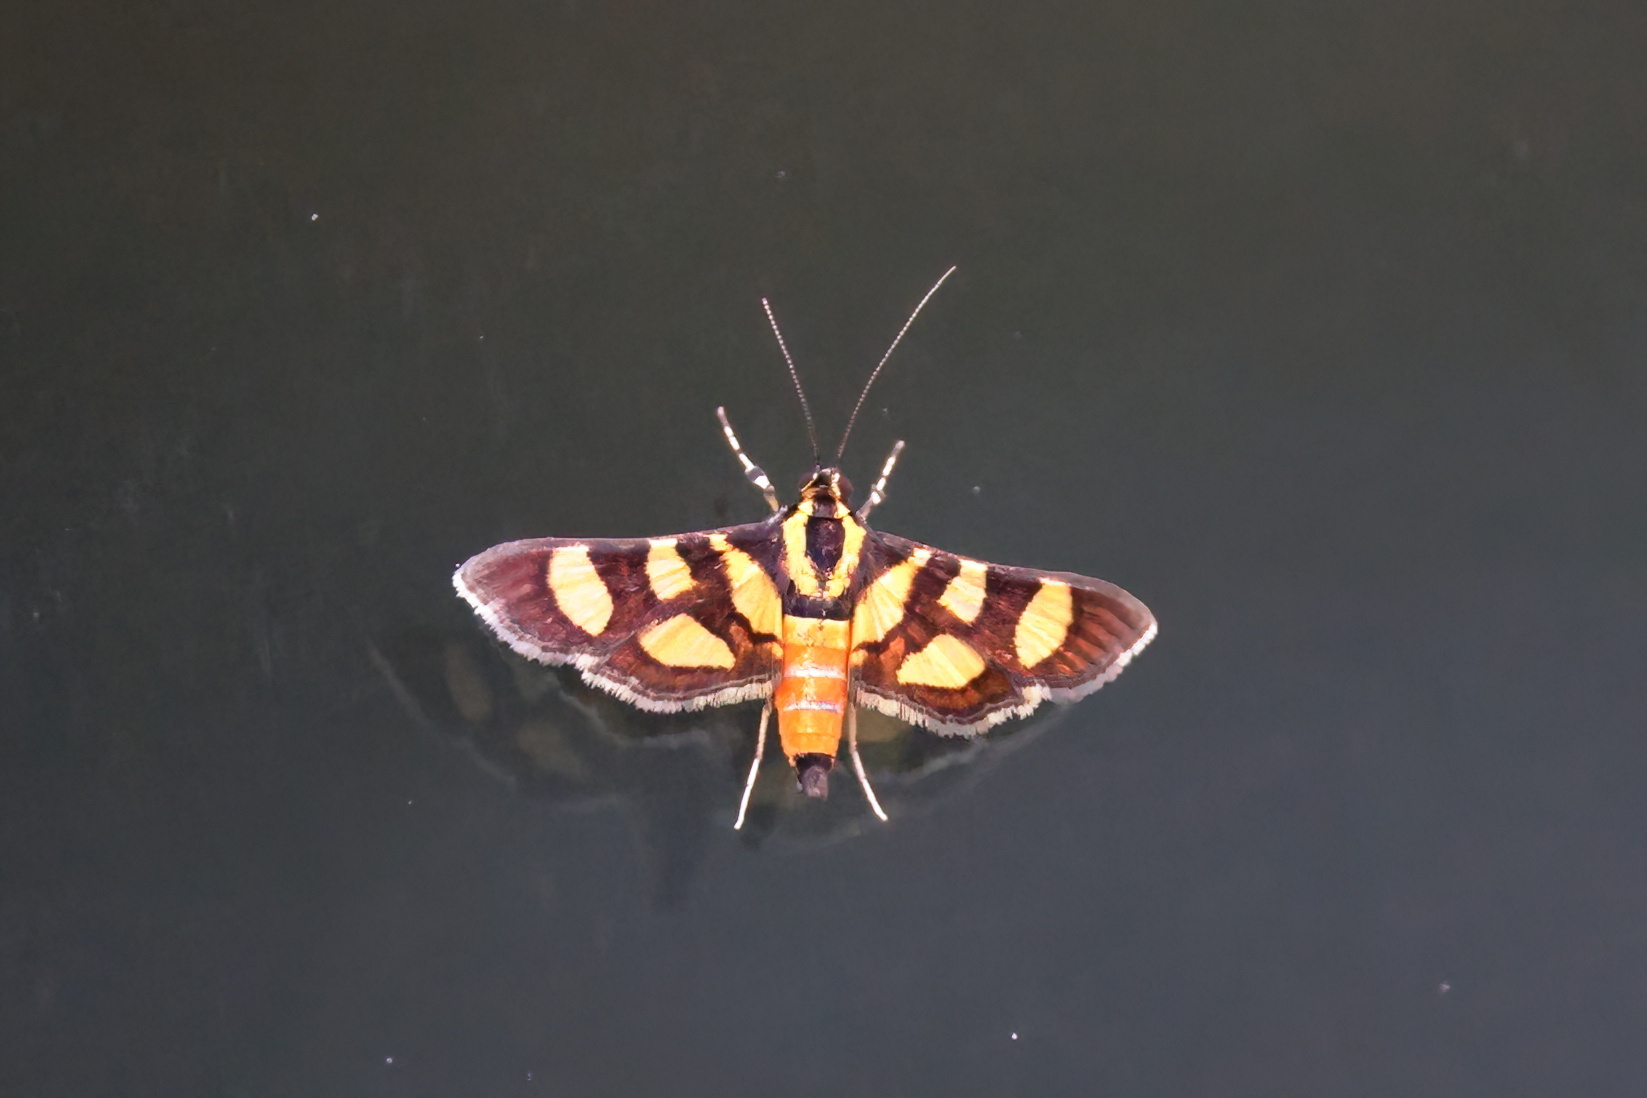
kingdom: Animalia
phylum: Arthropoda
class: Insecta
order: Lepidoptera
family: Crambidae
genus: Syngamia
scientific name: Syngamia florella
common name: Orange-spotted flower moth
